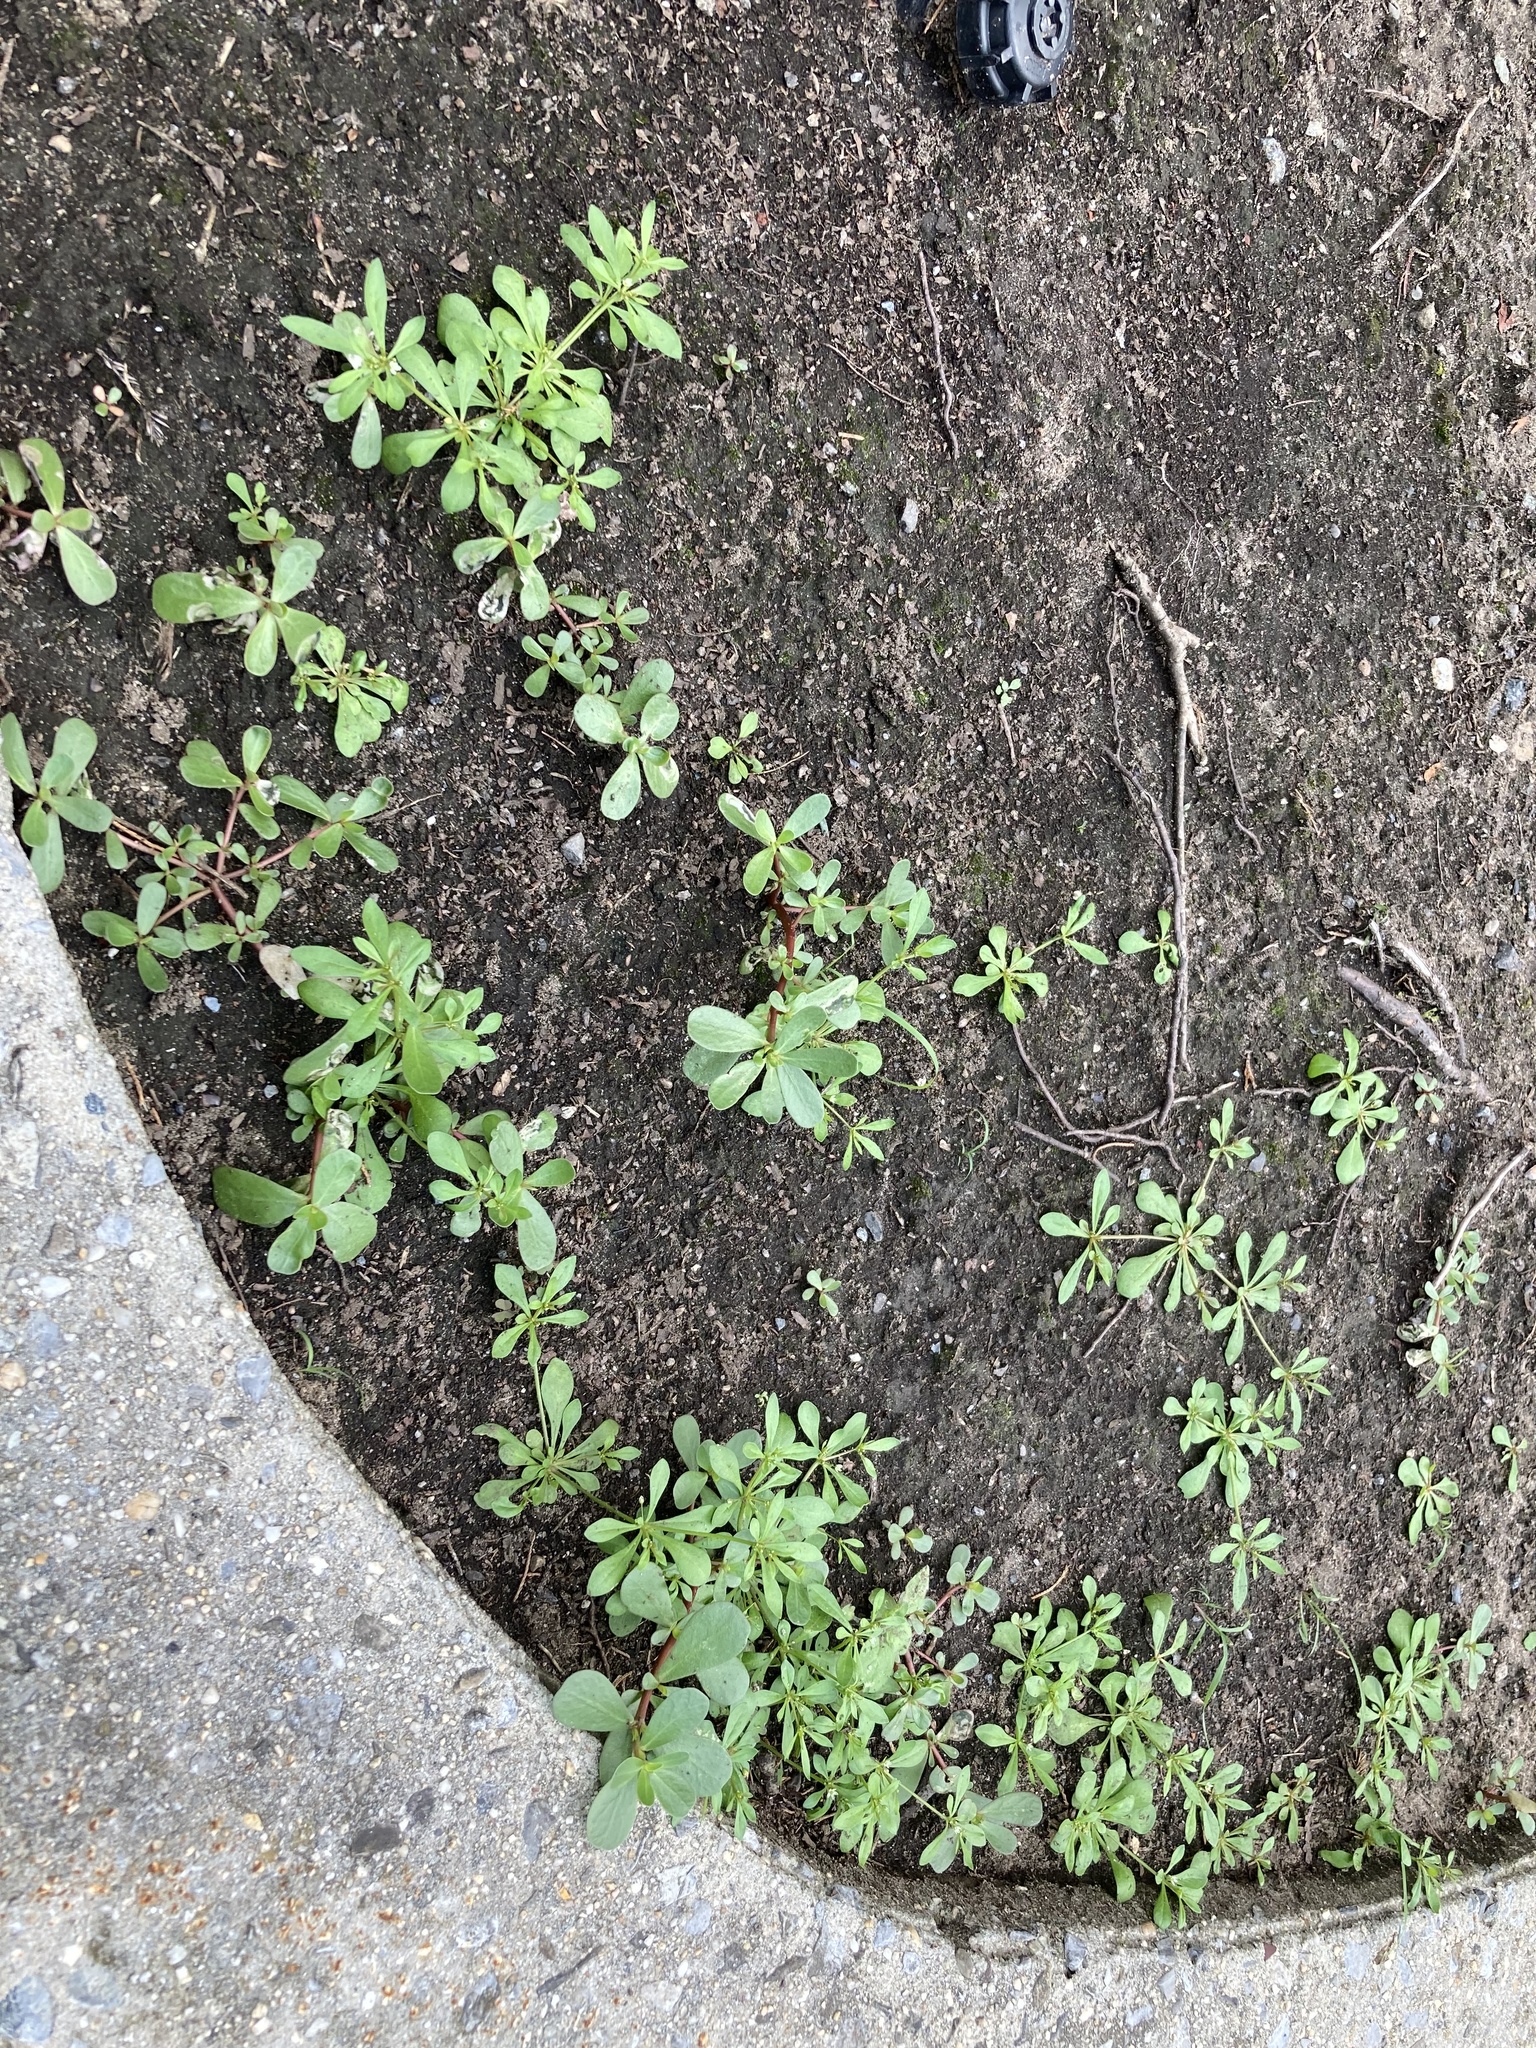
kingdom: Plantae
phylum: Tracheophyta
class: Magnoliopsida
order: Caryophyllales
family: Portulacaceae
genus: Portulaca
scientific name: Portulaca oleracea
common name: Common purslane
